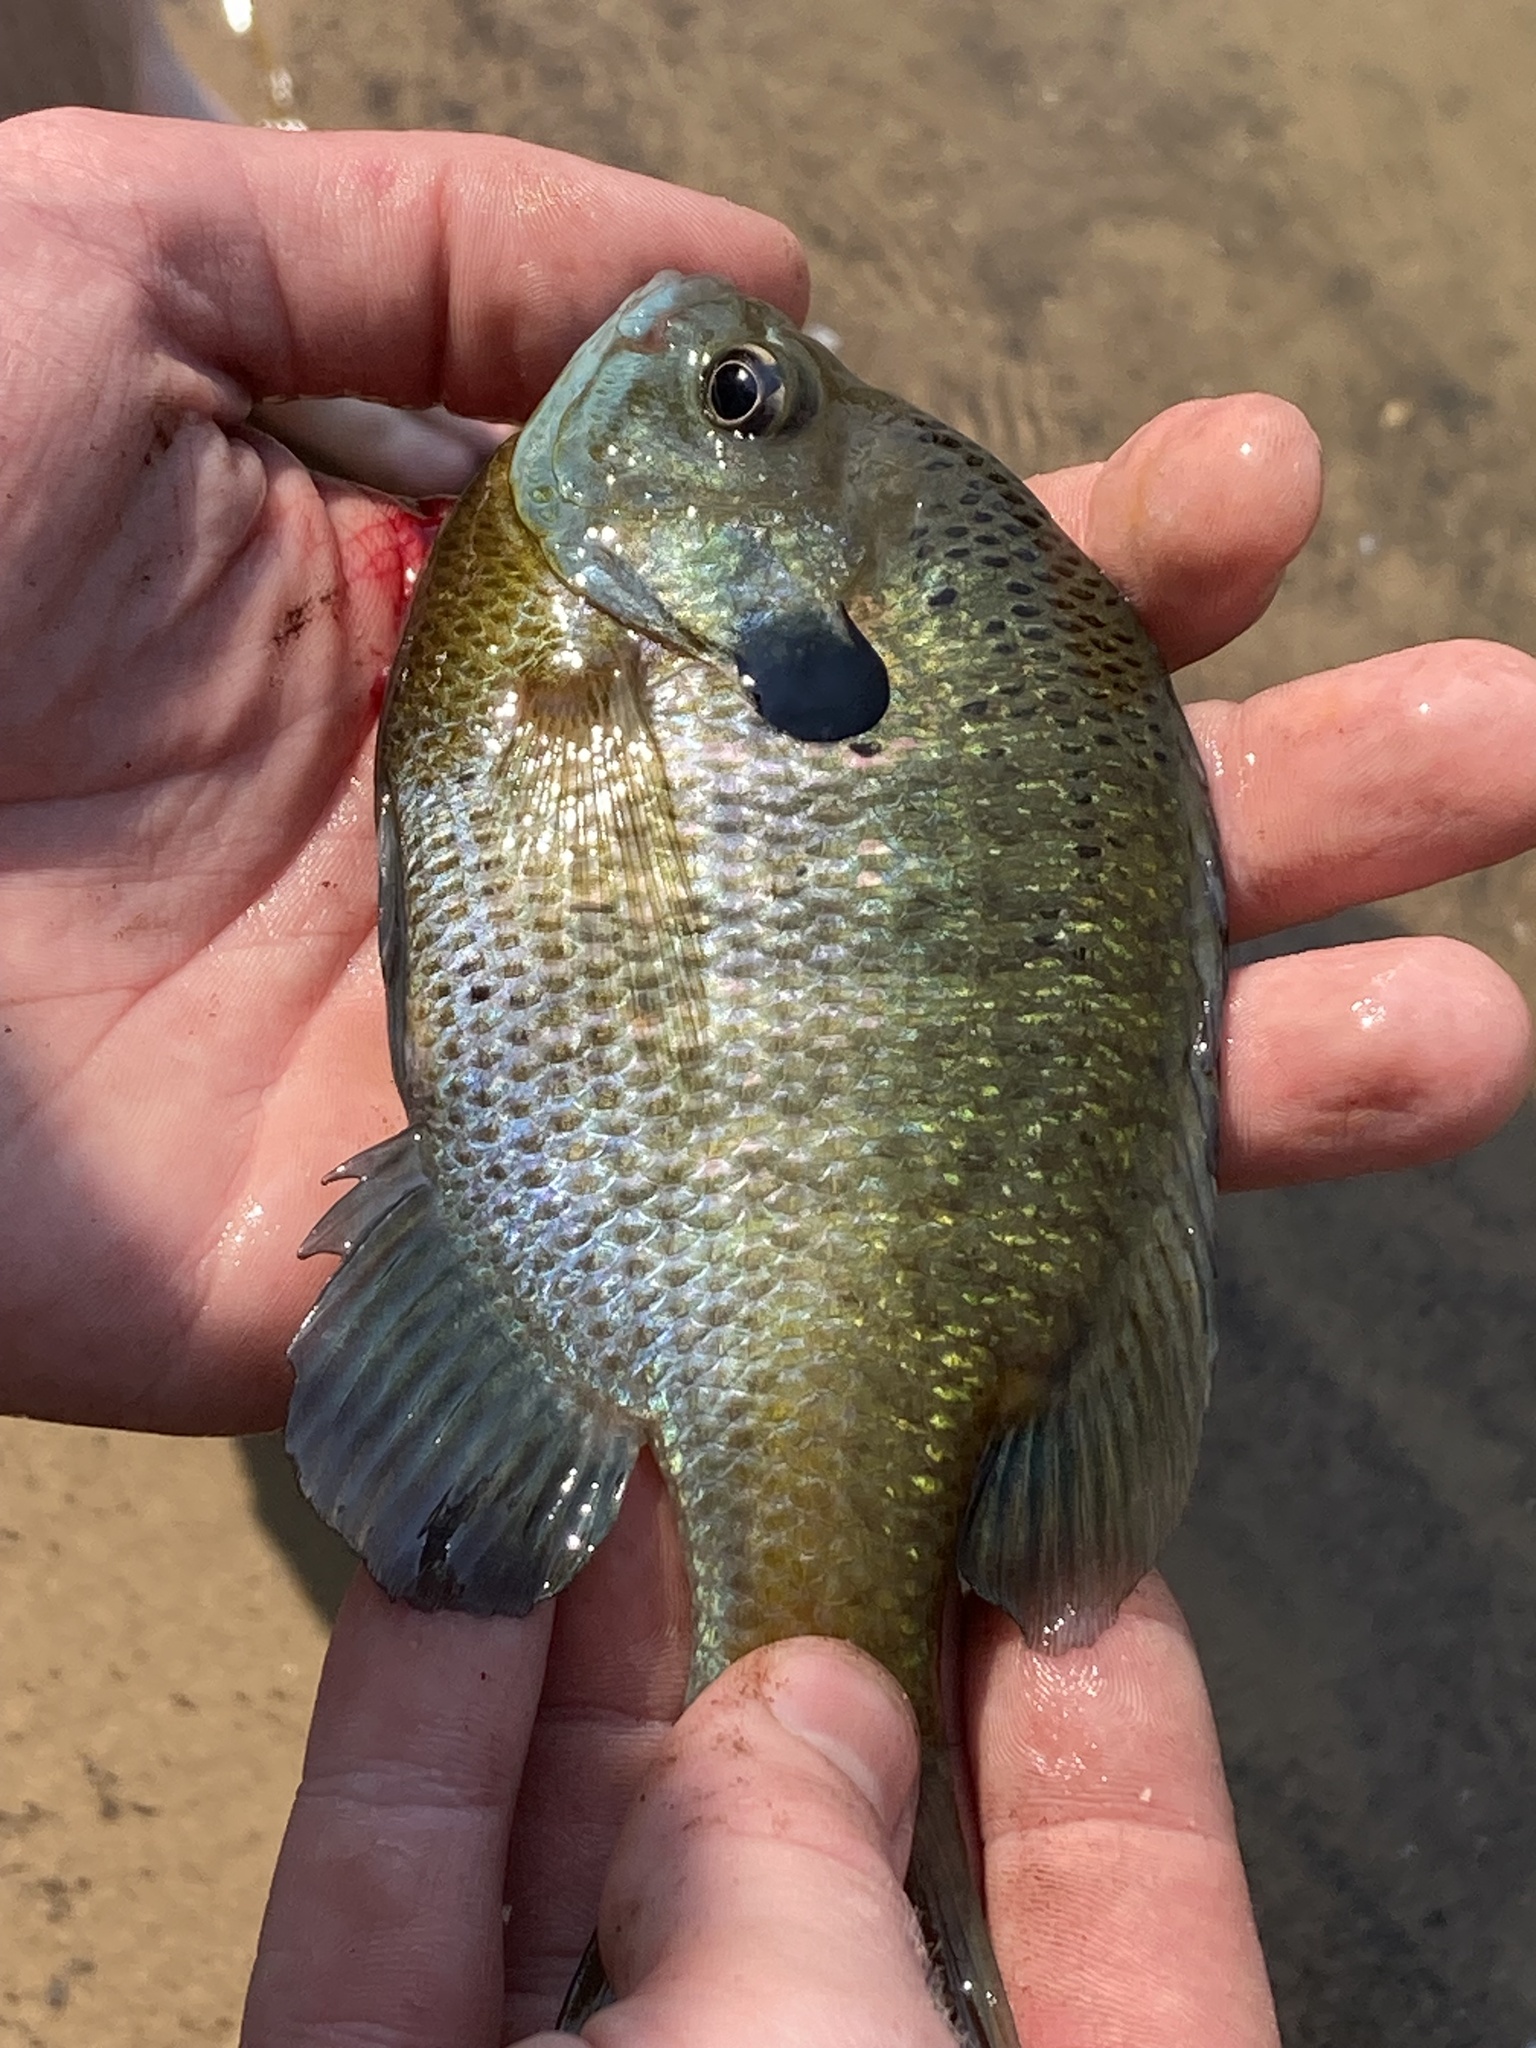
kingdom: Animalia
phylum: Chordata
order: Perciformes
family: Centrarchidae
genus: Lepomis
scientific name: Lepomis macrochirus
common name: Bluegill
